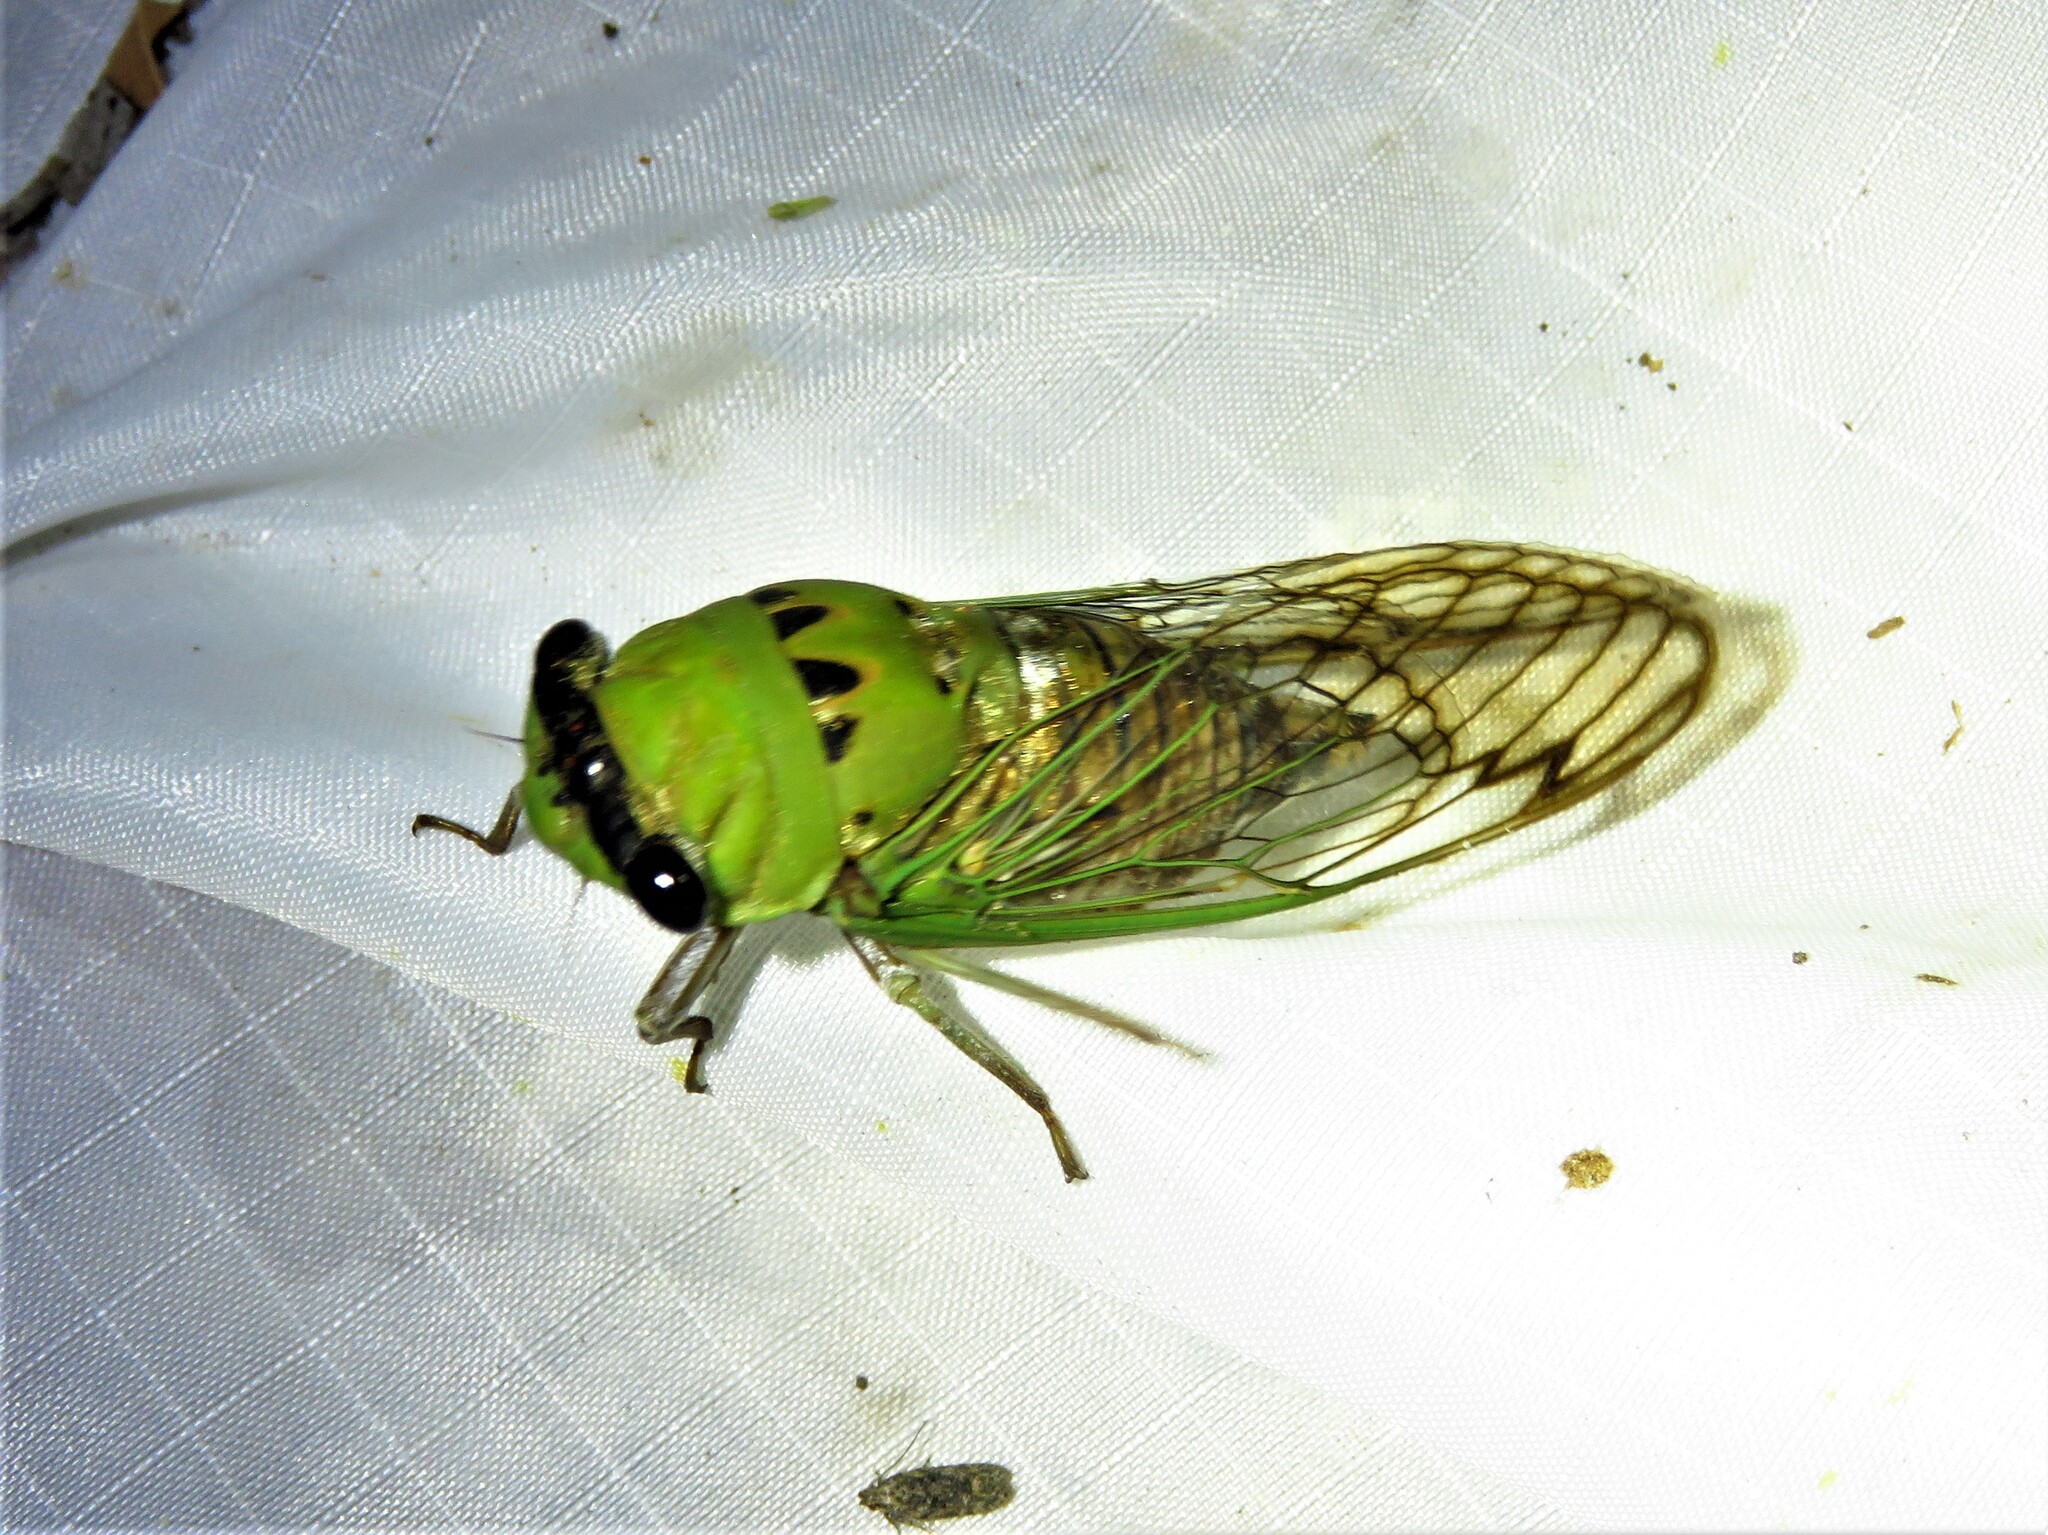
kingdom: Animalia
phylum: Arthropoda
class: Insecta
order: Hemiptera
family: Cicadidae
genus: Neotibicen
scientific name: Neotibicen superbus
